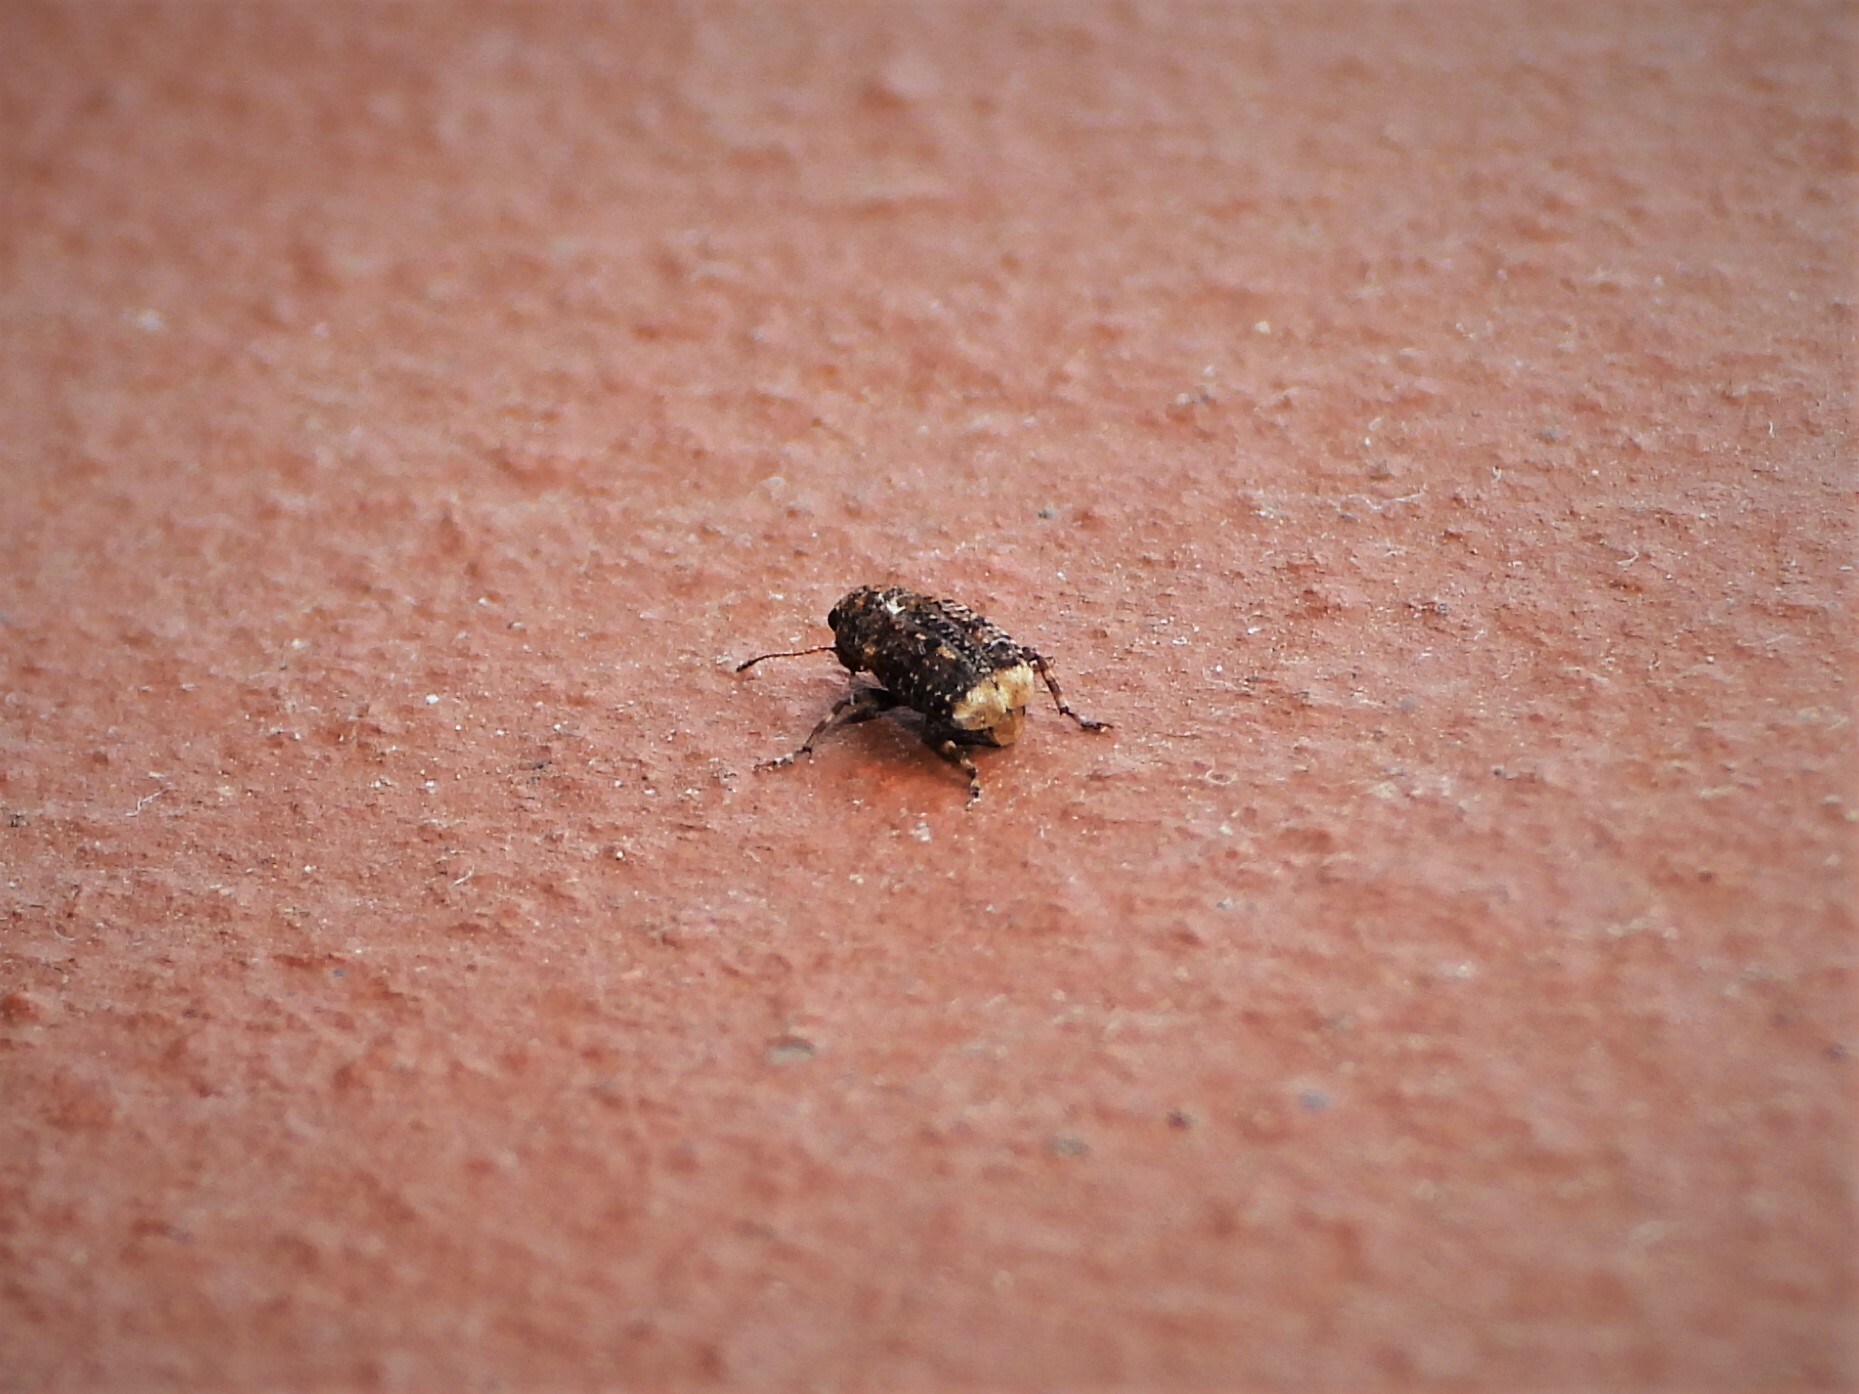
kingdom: Animalia
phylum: Arthropoda
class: Insecta
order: Coleoptera
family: Anthribidae
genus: Dissoleucas
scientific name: Dissoleucas niveirostris
